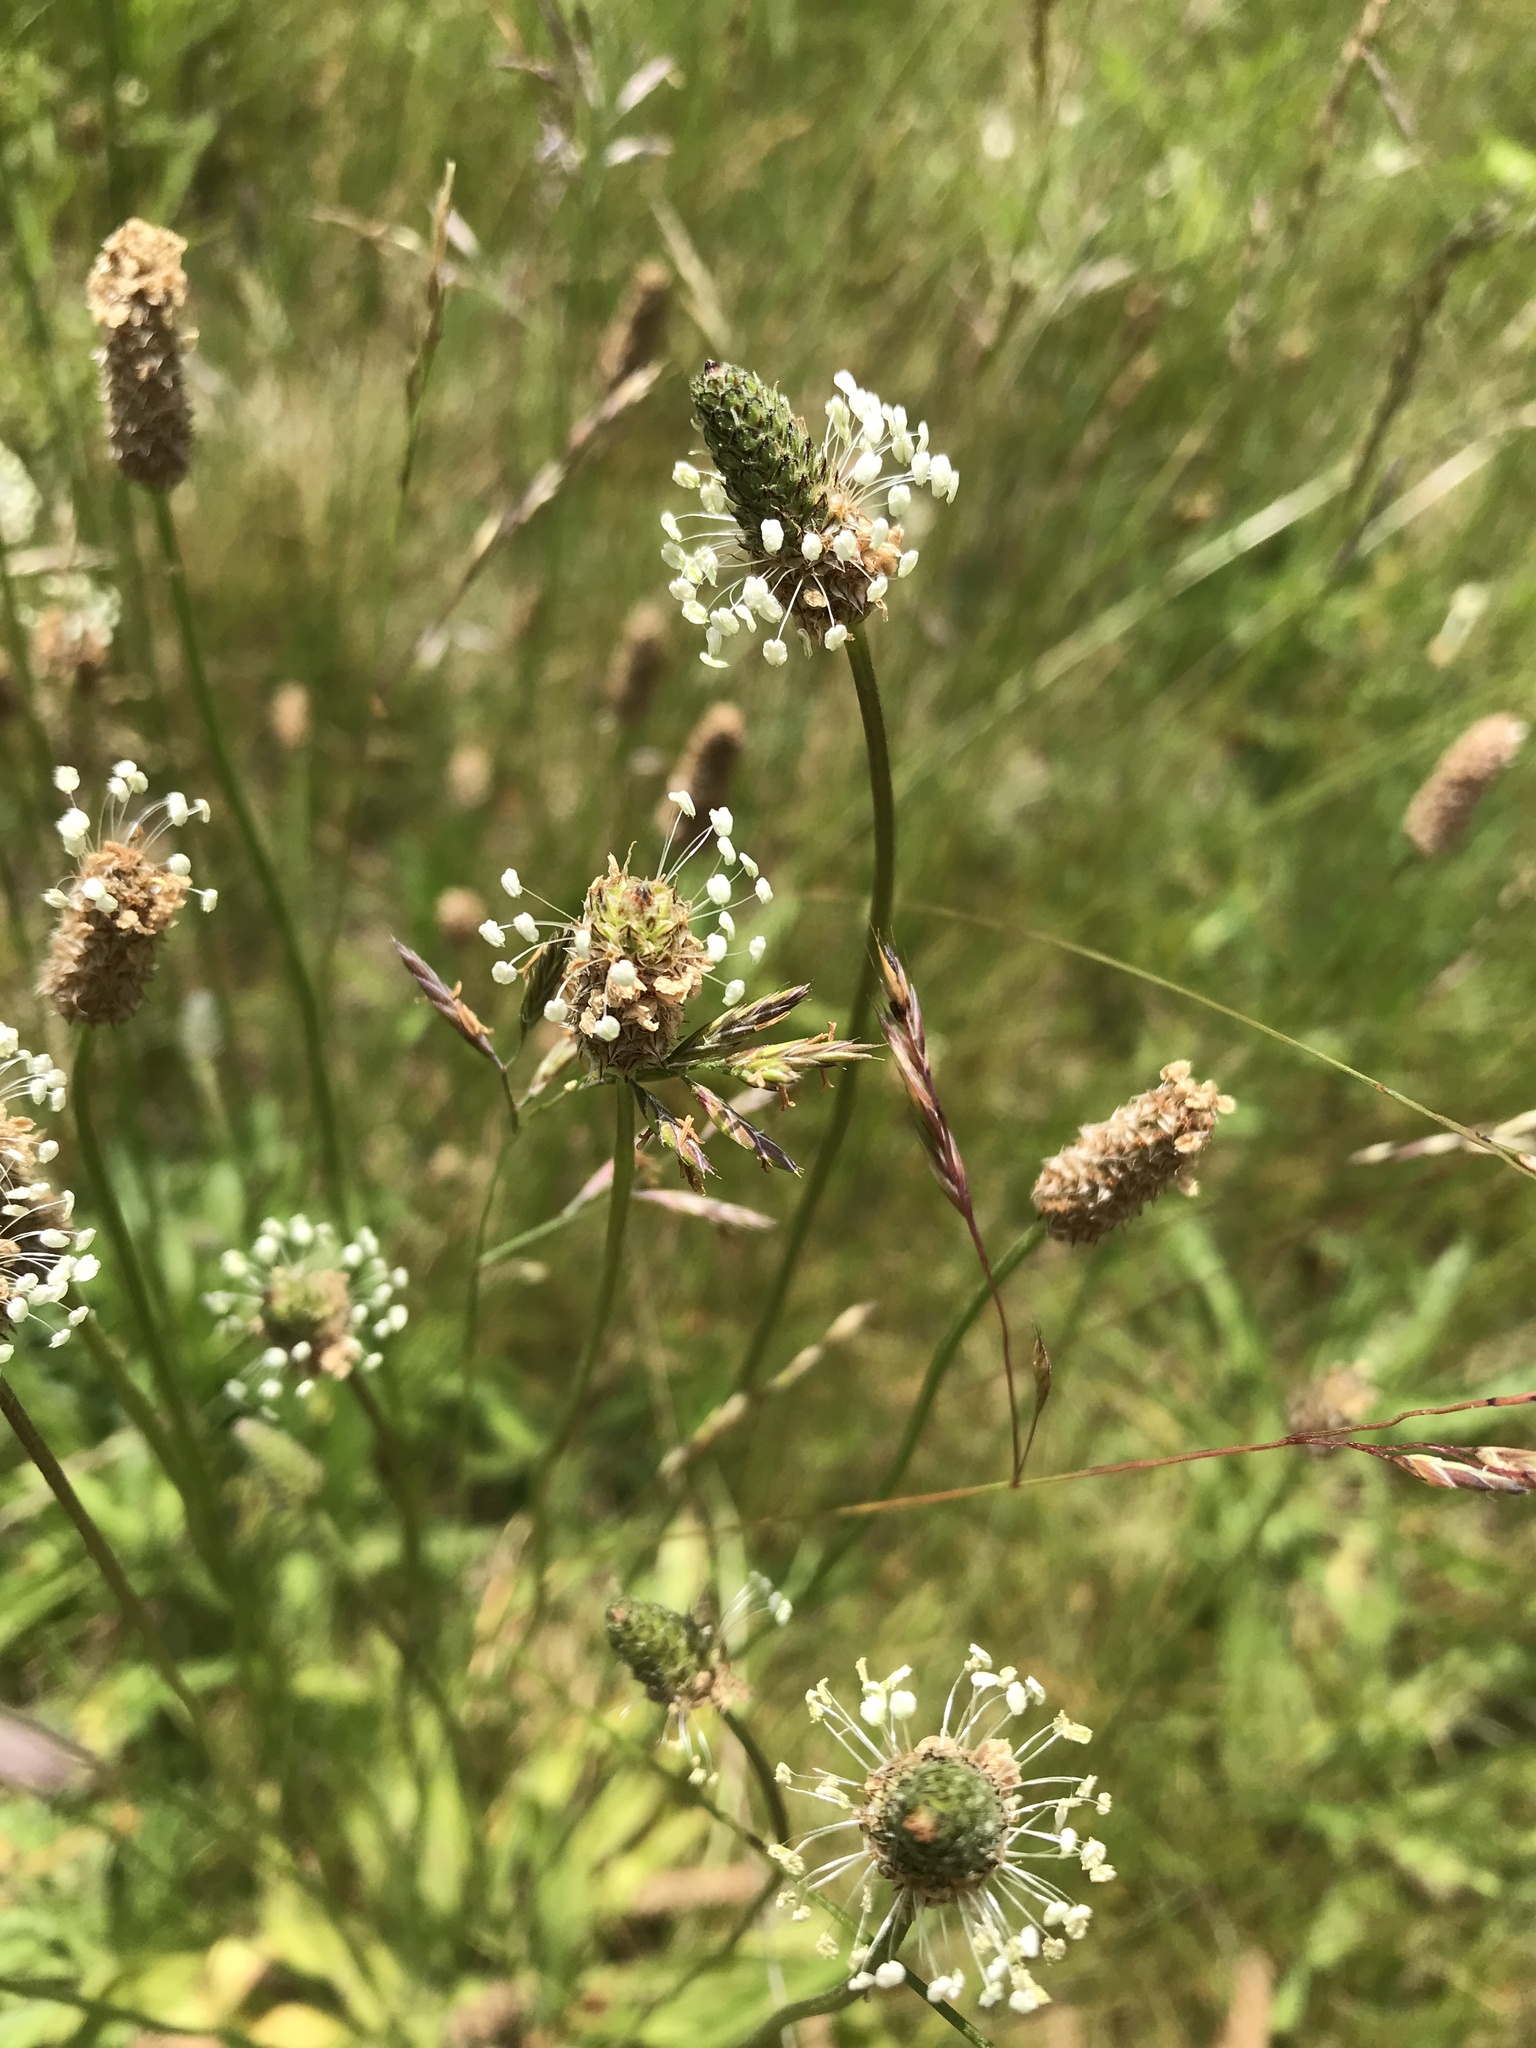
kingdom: Plantae
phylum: Tracheophyta
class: Magnoliopsida
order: Lamiales
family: Plantaginaceae
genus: Plantago
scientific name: Plantago lanceolata
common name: Ribwort plantain
